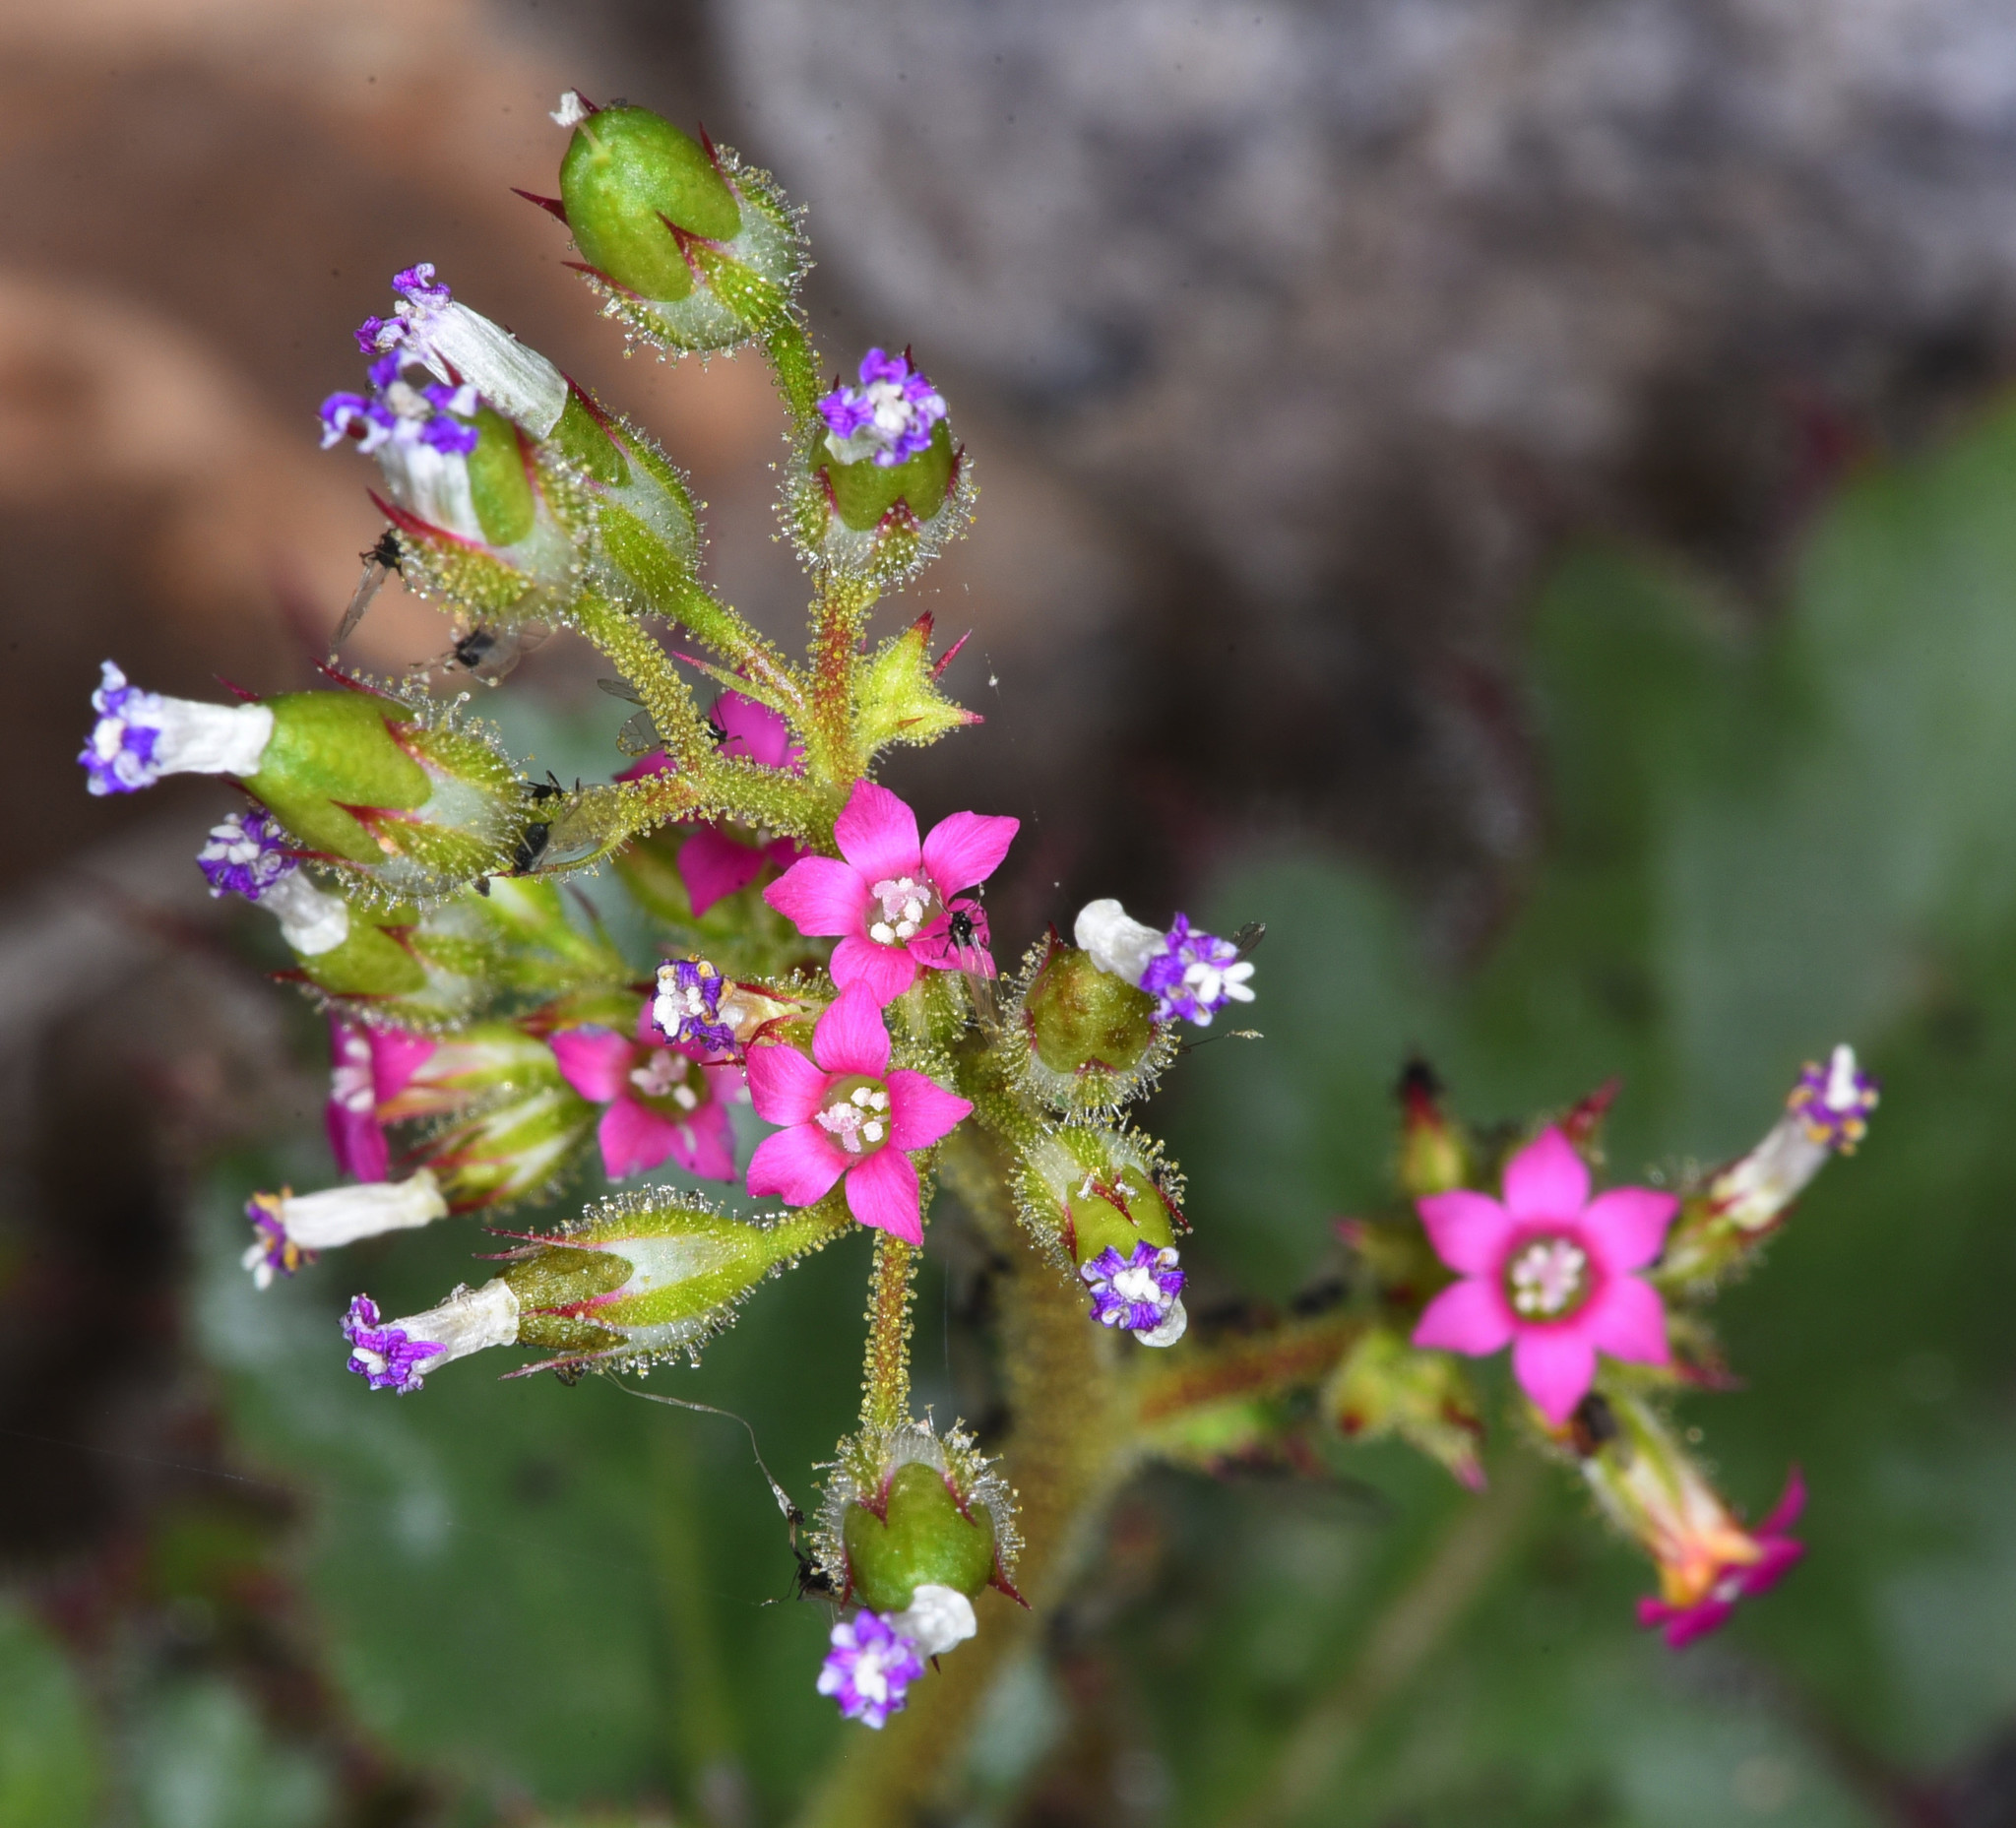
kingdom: Plantae
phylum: Tracheophyta
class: Magnoliopsida
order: Ericales
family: Polemoniaceae
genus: Aliciella
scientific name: Aliciella latifolia
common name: Broad-leaf gilia
